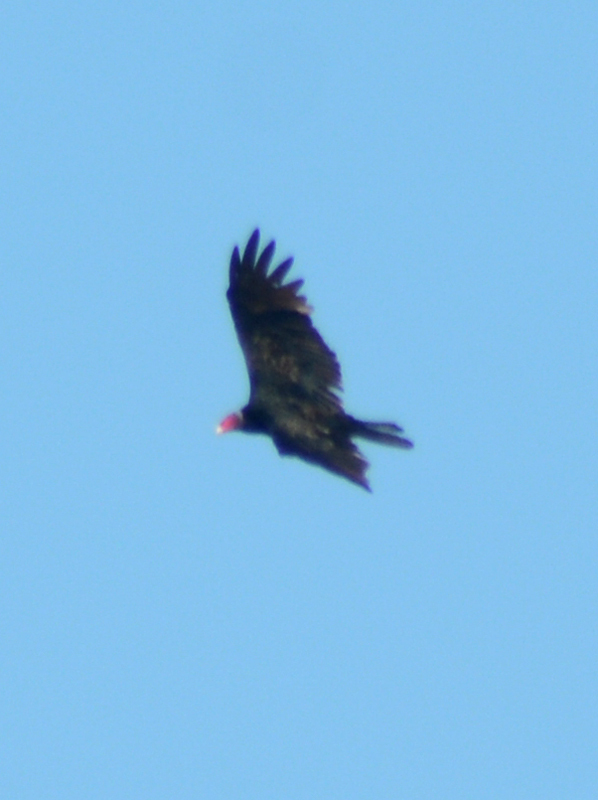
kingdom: Animalia
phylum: Chordata
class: Aves
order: Accipitriformes
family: Cathartidae
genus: Cathartes
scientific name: Cathartes aura
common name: Turkey vulture
